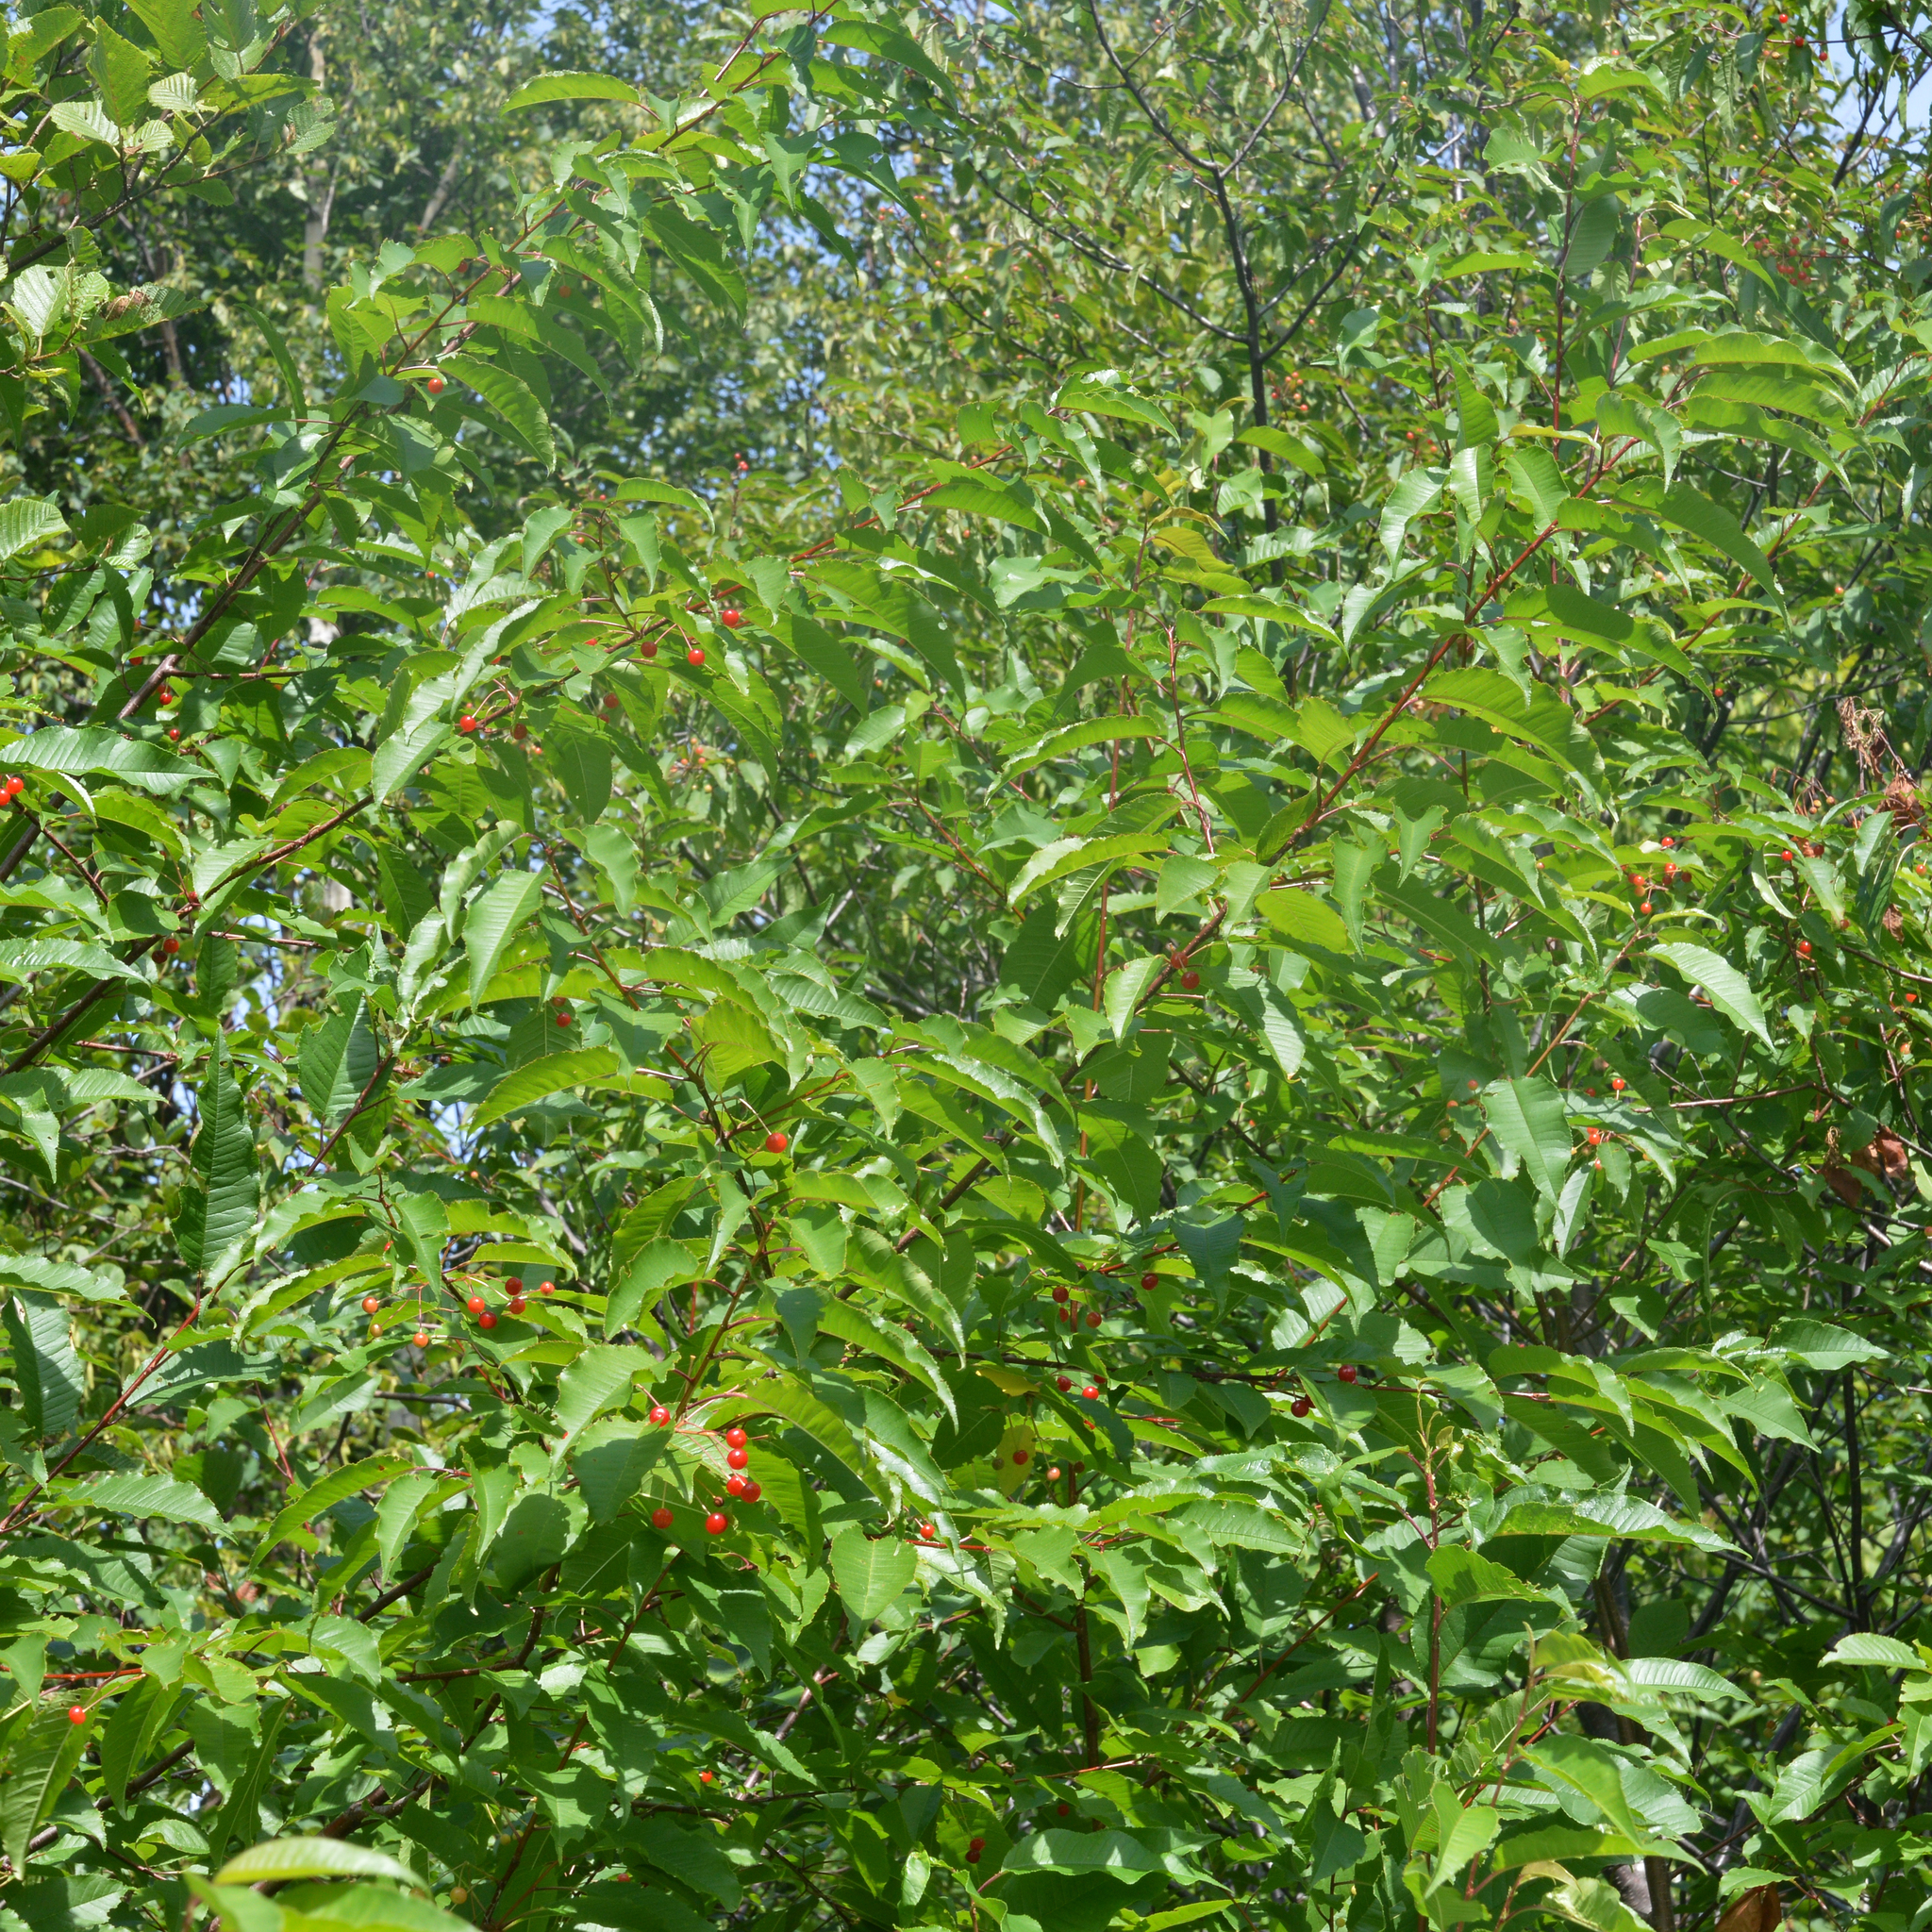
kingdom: Plantae
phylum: Tracheophyta
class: Magnoliopsida
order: Rosales
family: Rosaceae
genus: Prunus
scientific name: Prunus pensylvanica
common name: Pin cherry
